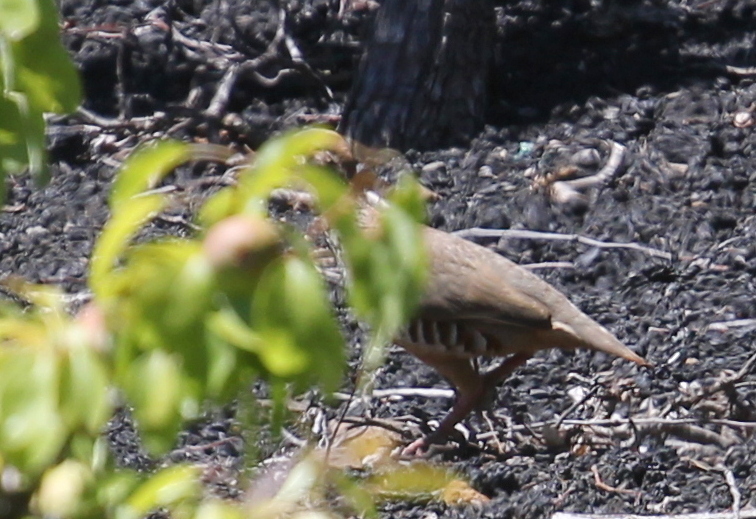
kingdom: Animalia
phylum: Chordata
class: Aves
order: Galliformes
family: Phasianidae
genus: Alectoris
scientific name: Alectoris rufa
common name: Red-legged partridge
